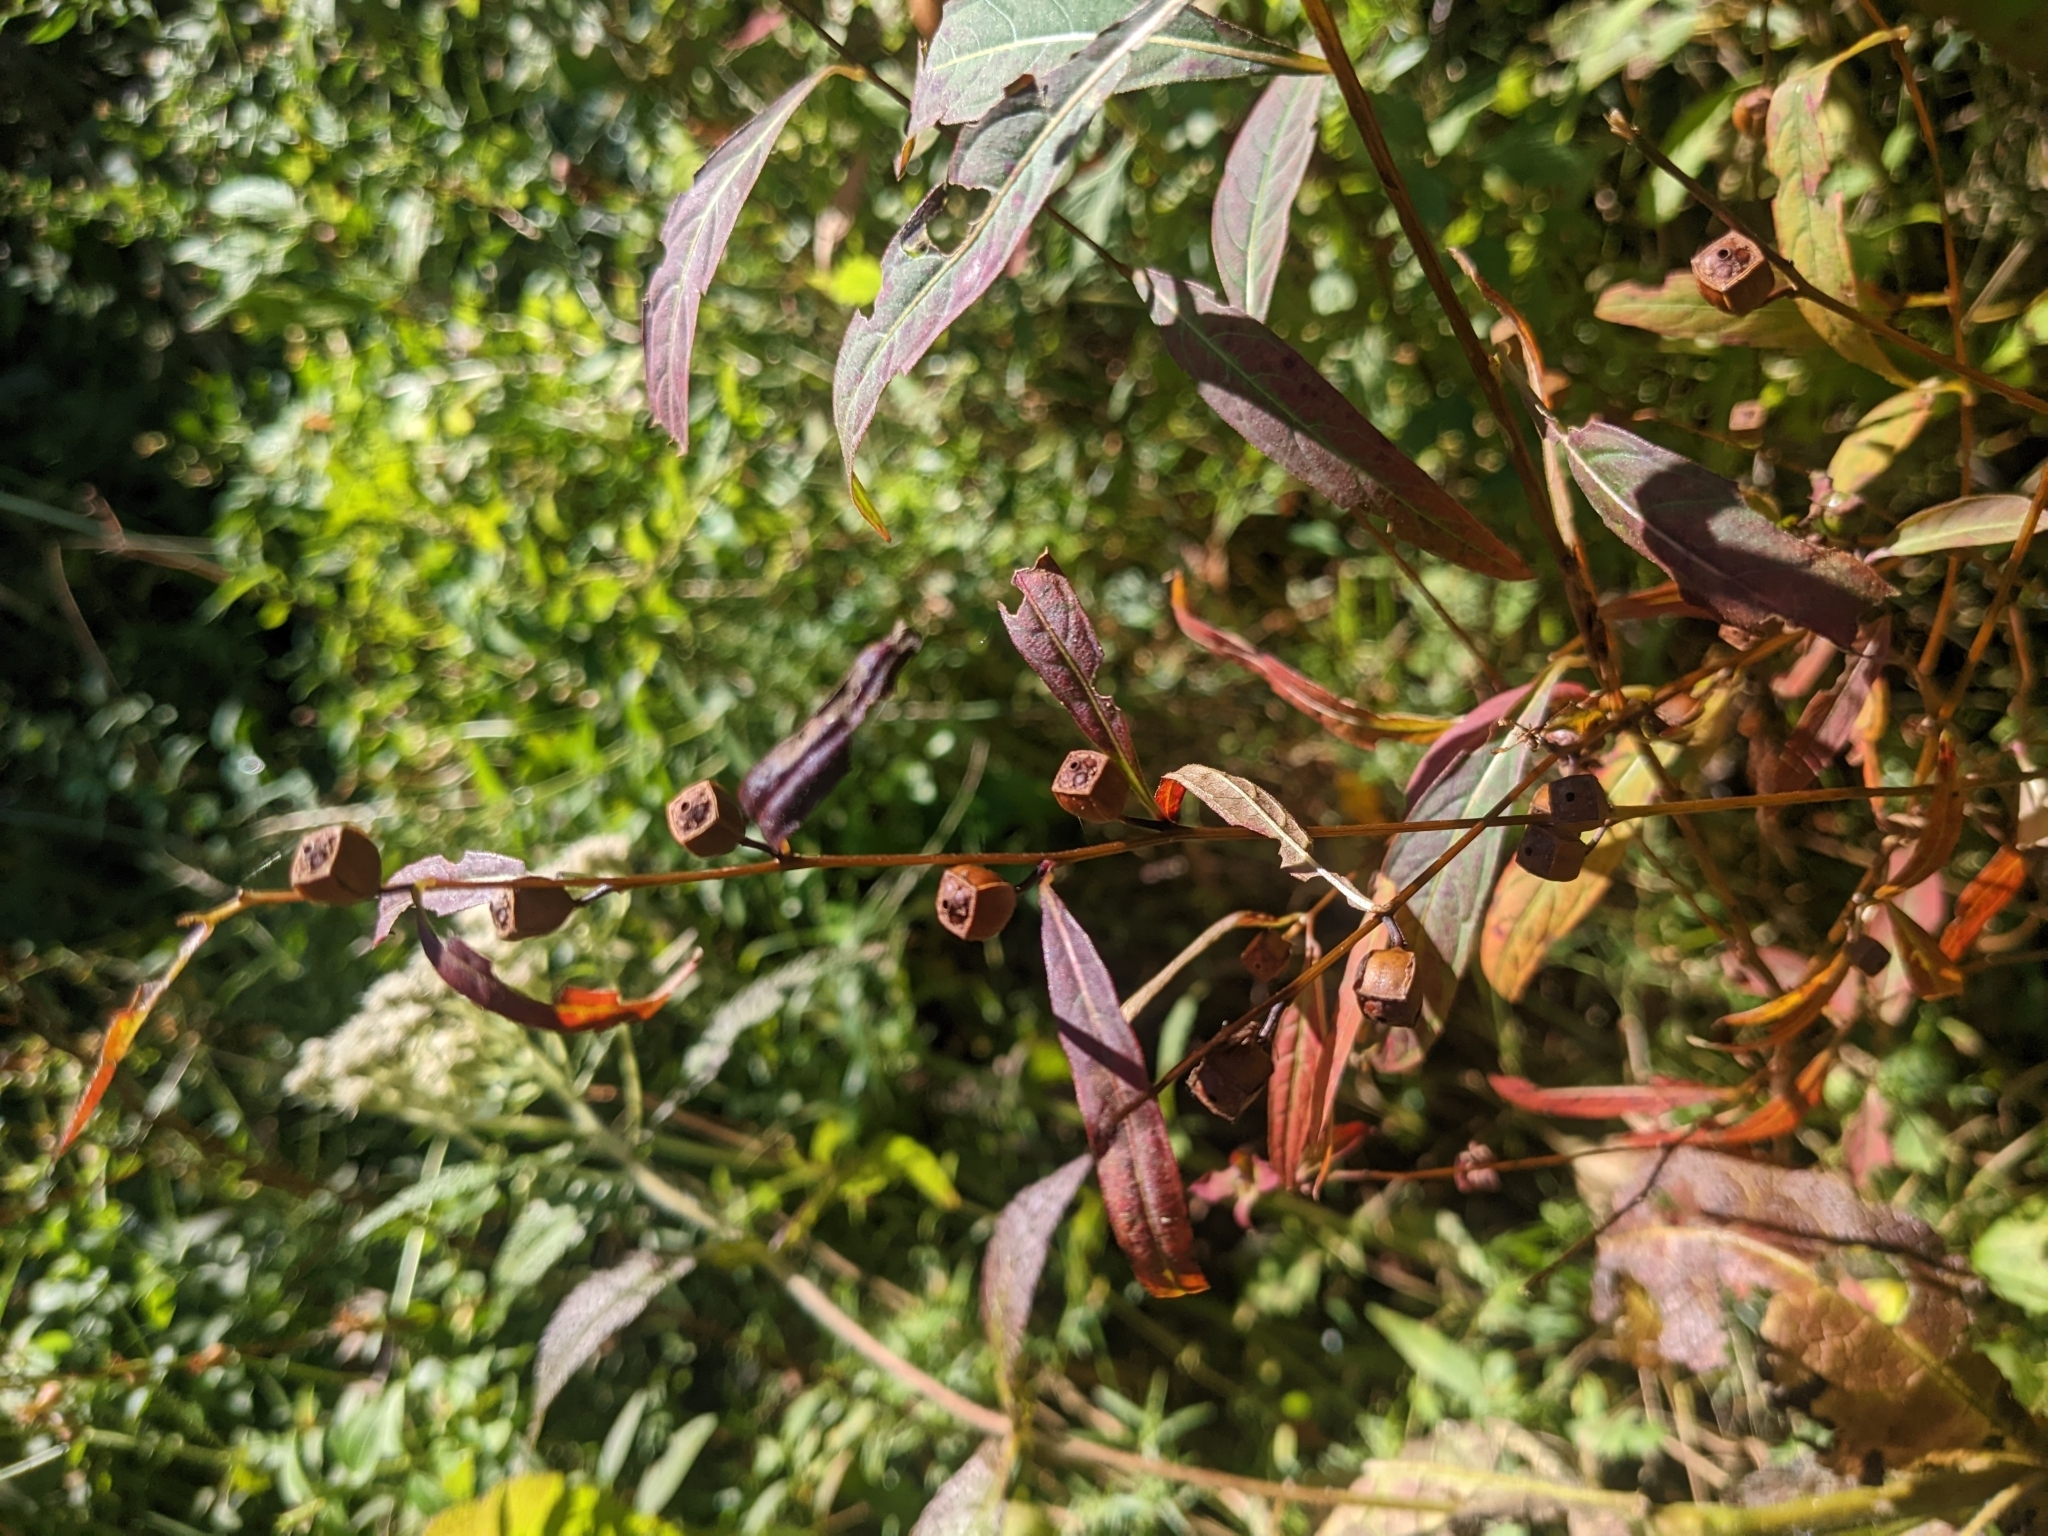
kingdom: Plantae
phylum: Tracheophyta
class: Magnoliopsida
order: Myrtales
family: Onagraceae
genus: Ludwigia
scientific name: Ludwigia alternifolia
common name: Rattlebox
